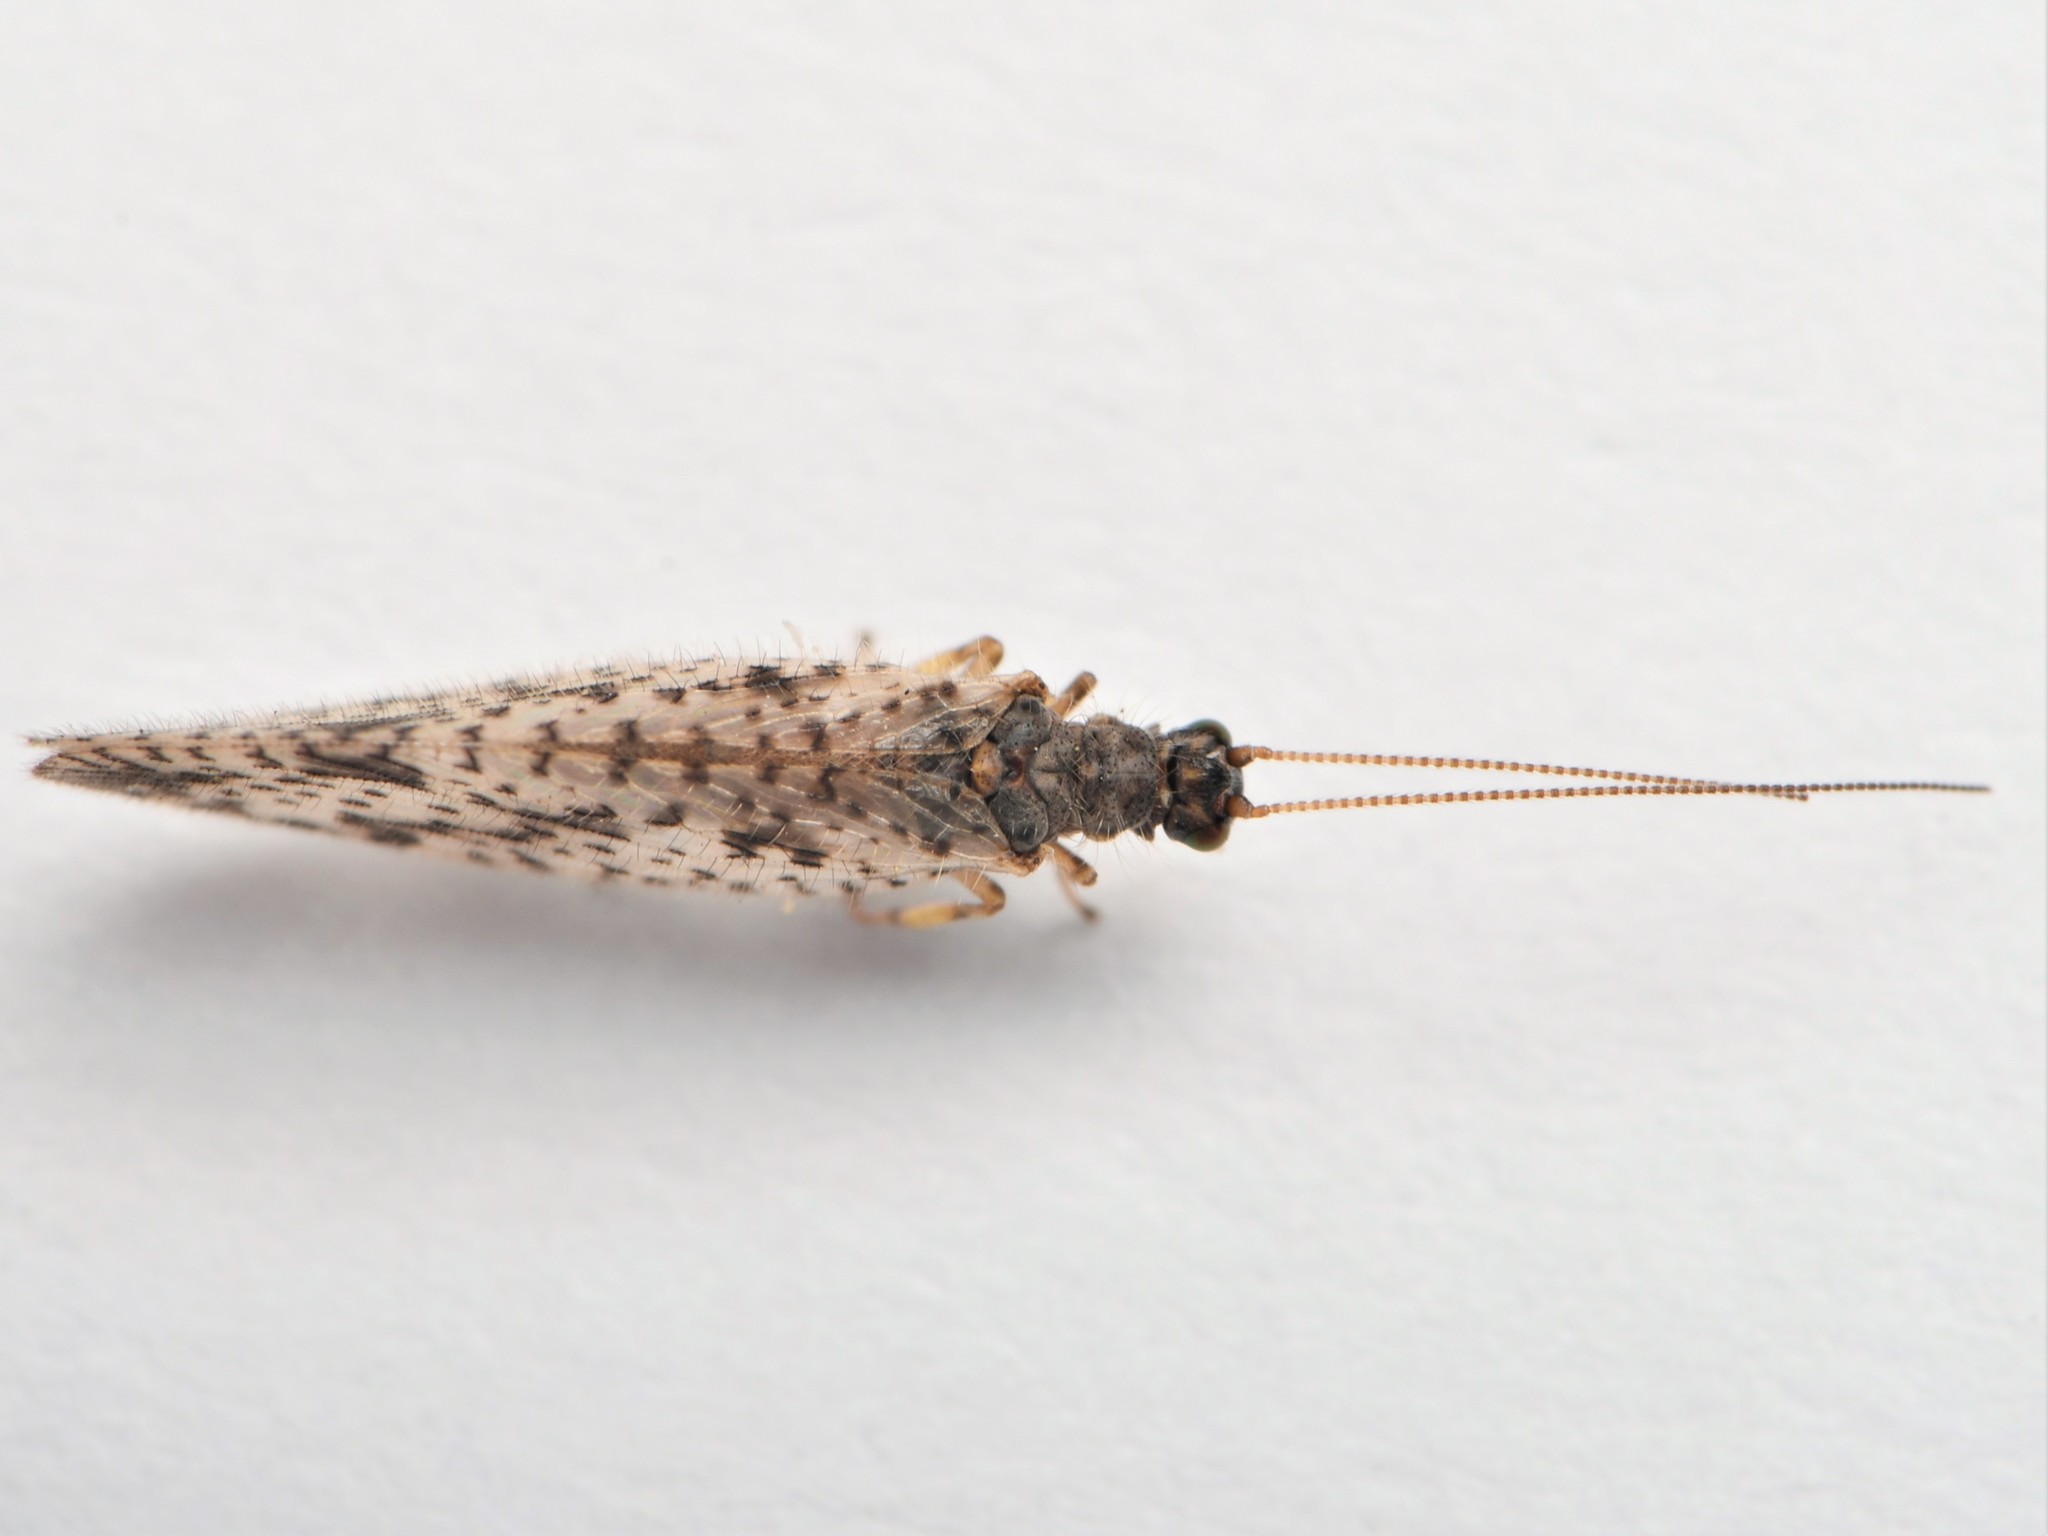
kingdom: Animalia
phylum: Arthropoda
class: Insecta
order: Neuroptera
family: Hemerobiidae
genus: Micromus
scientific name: Micromus variegatus
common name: Brown lacewing
